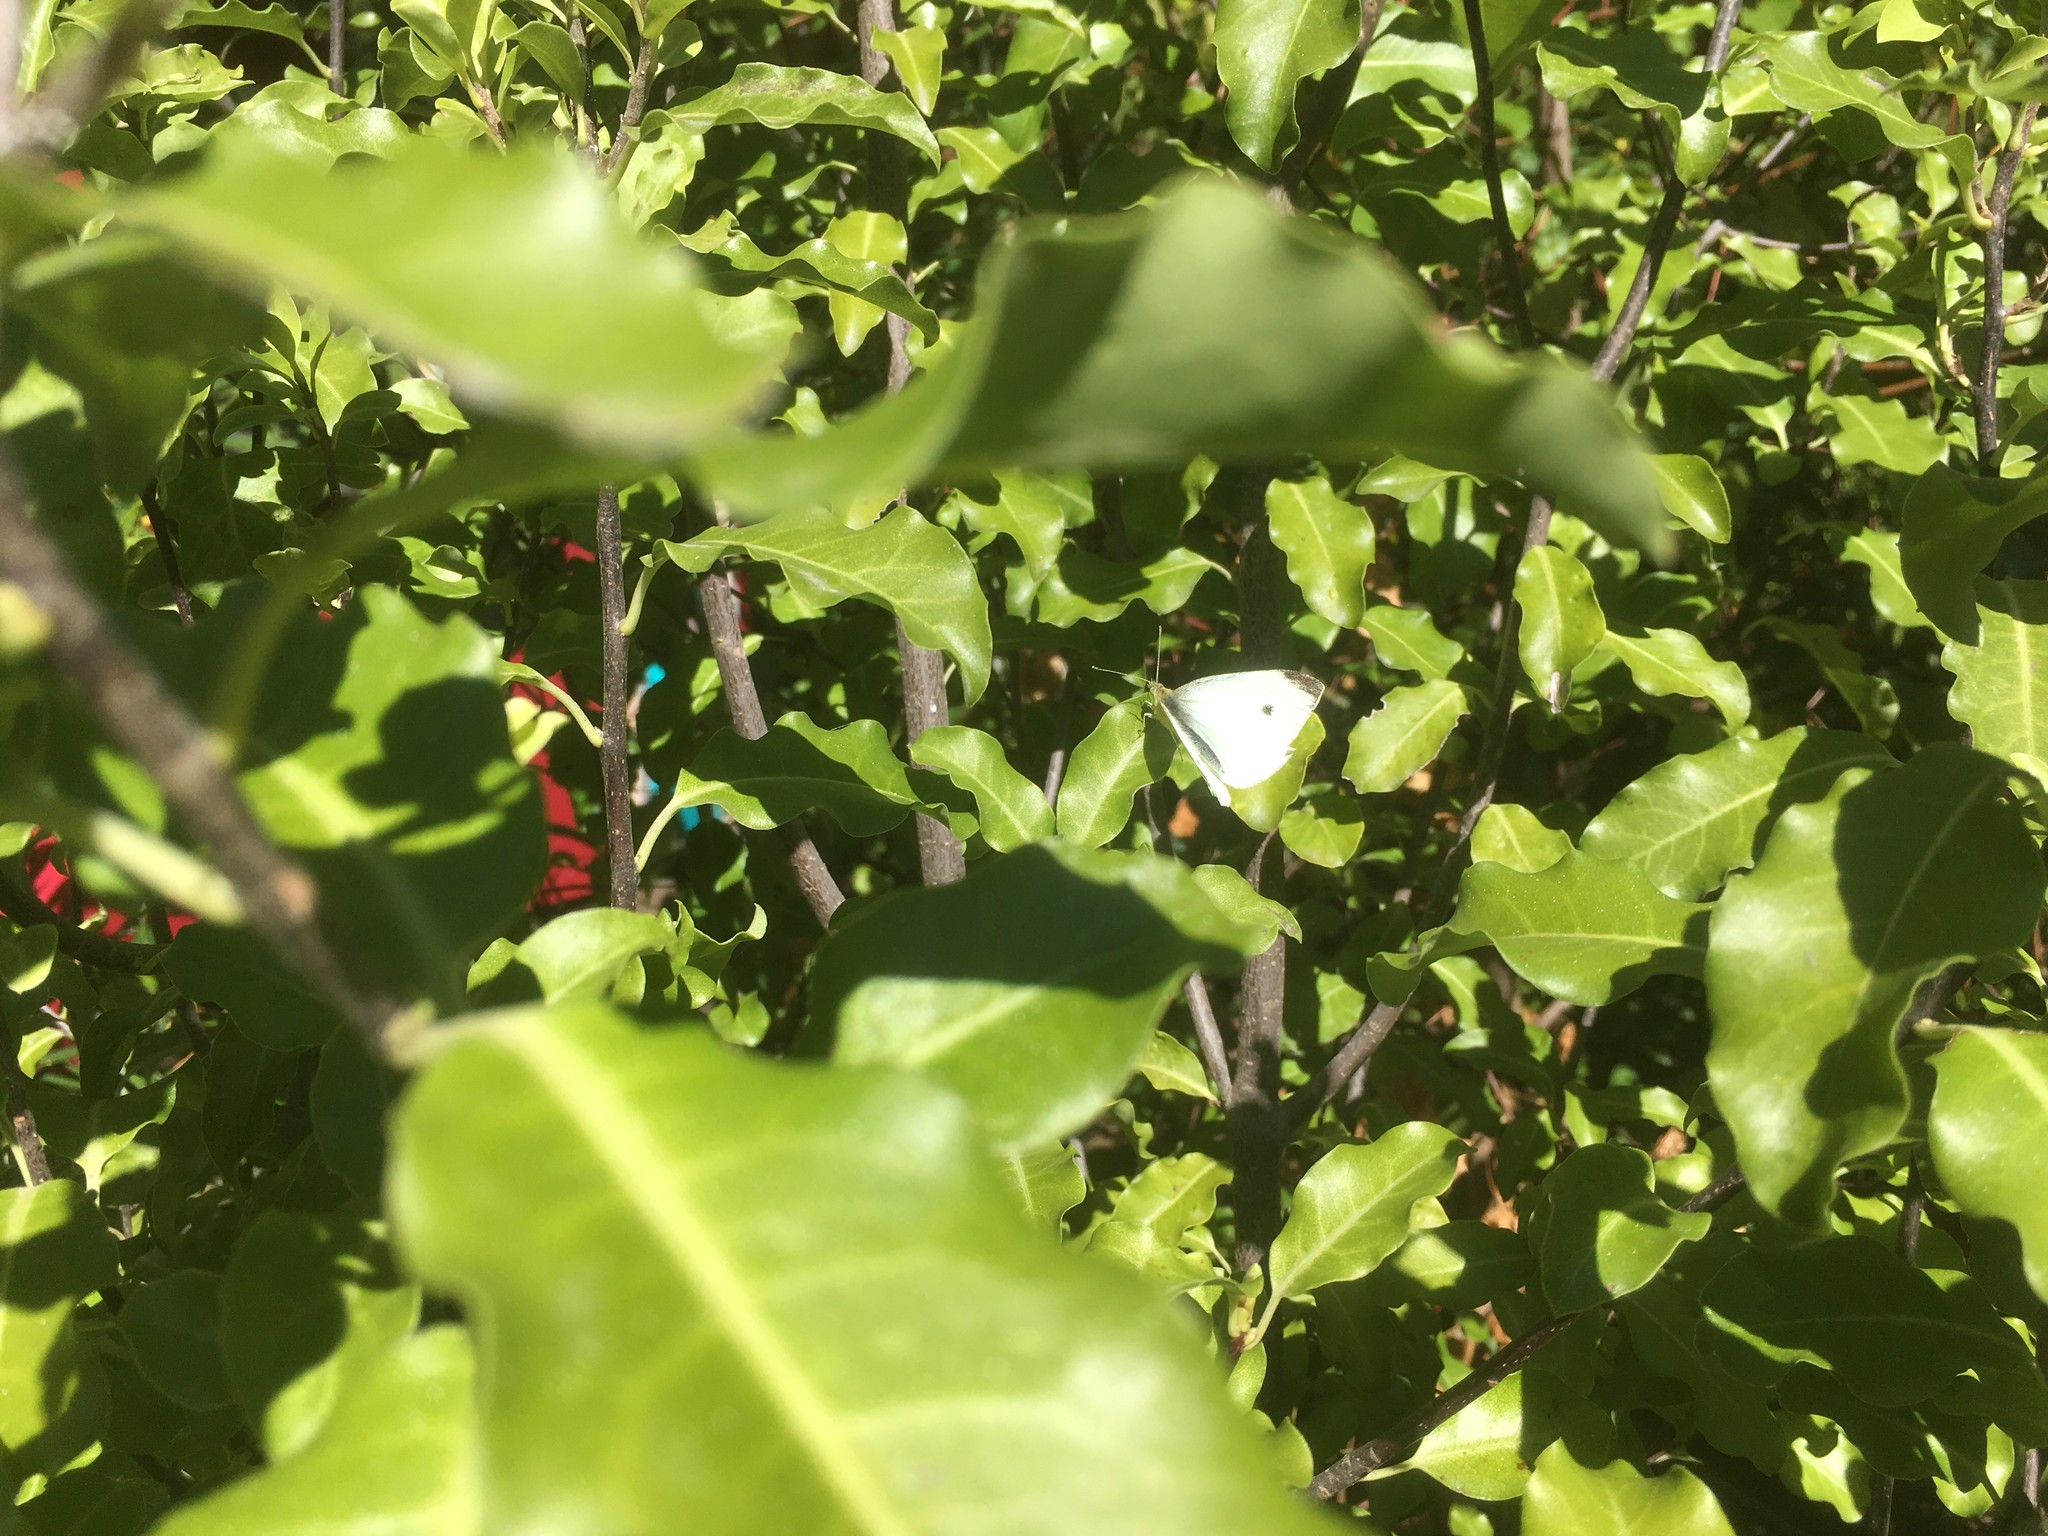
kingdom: Animalia
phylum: Arthropoda
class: Insecta
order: Lepidoptera
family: Pieridae
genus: Pieris
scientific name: Pieris rapae
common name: Small white
